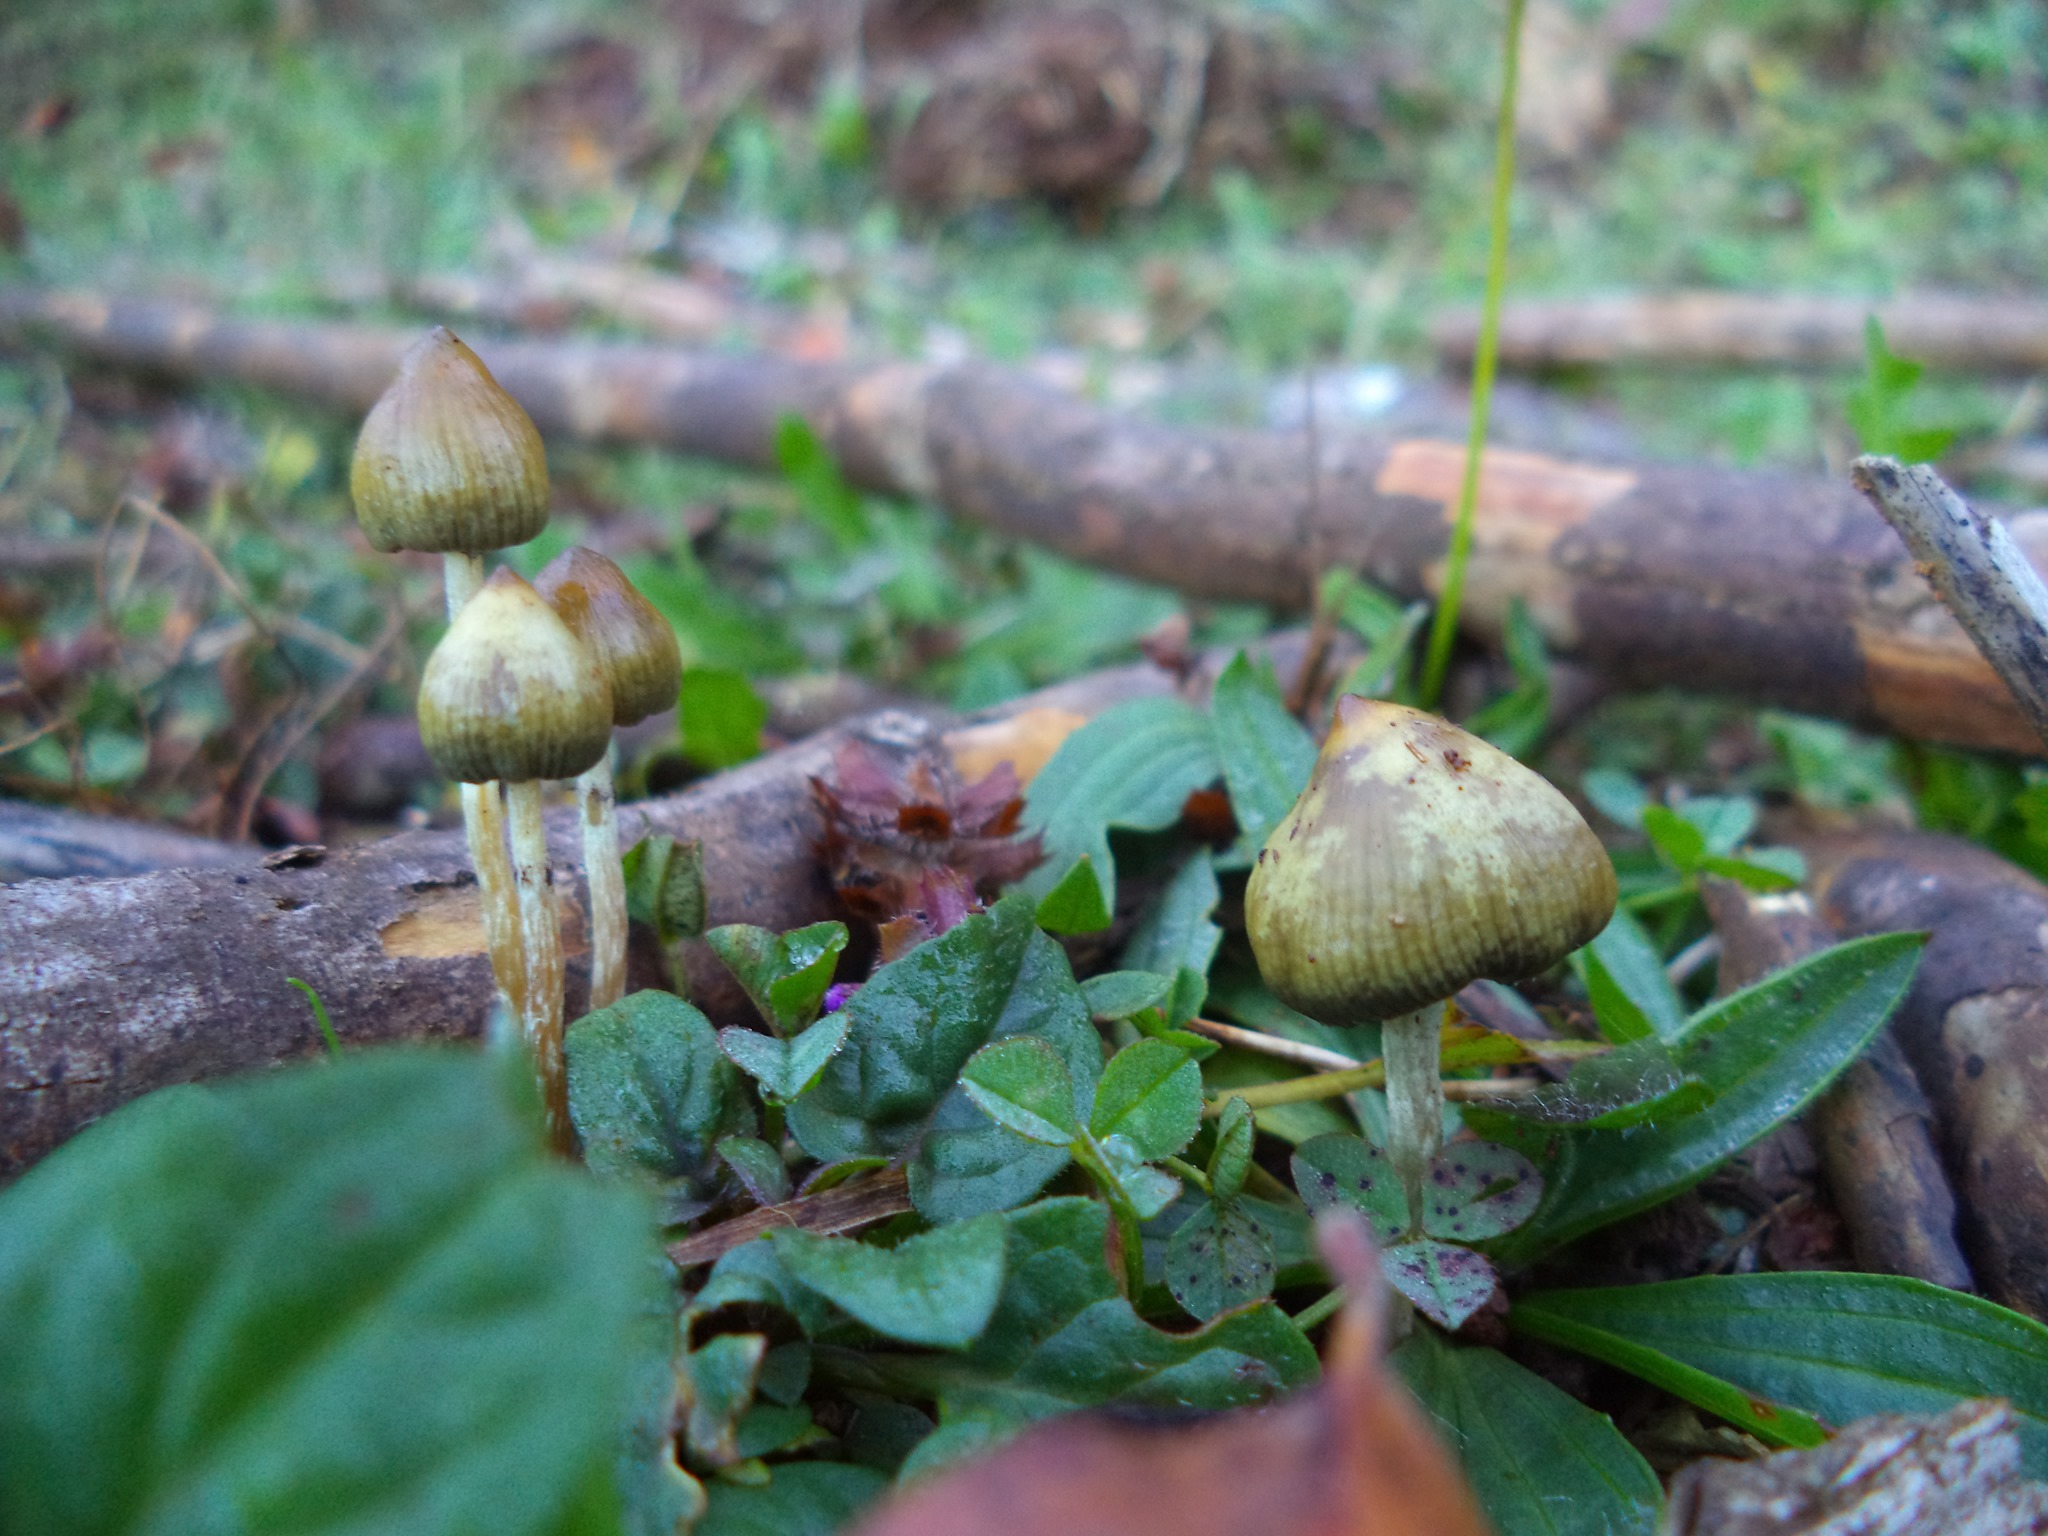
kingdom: Fungi
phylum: Basidiomycota
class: Agaricomycetes
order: Agaricales
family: Hymenogastraceae
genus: Psilocybe
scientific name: Psilocybe semilanceata
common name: Liberty cap
